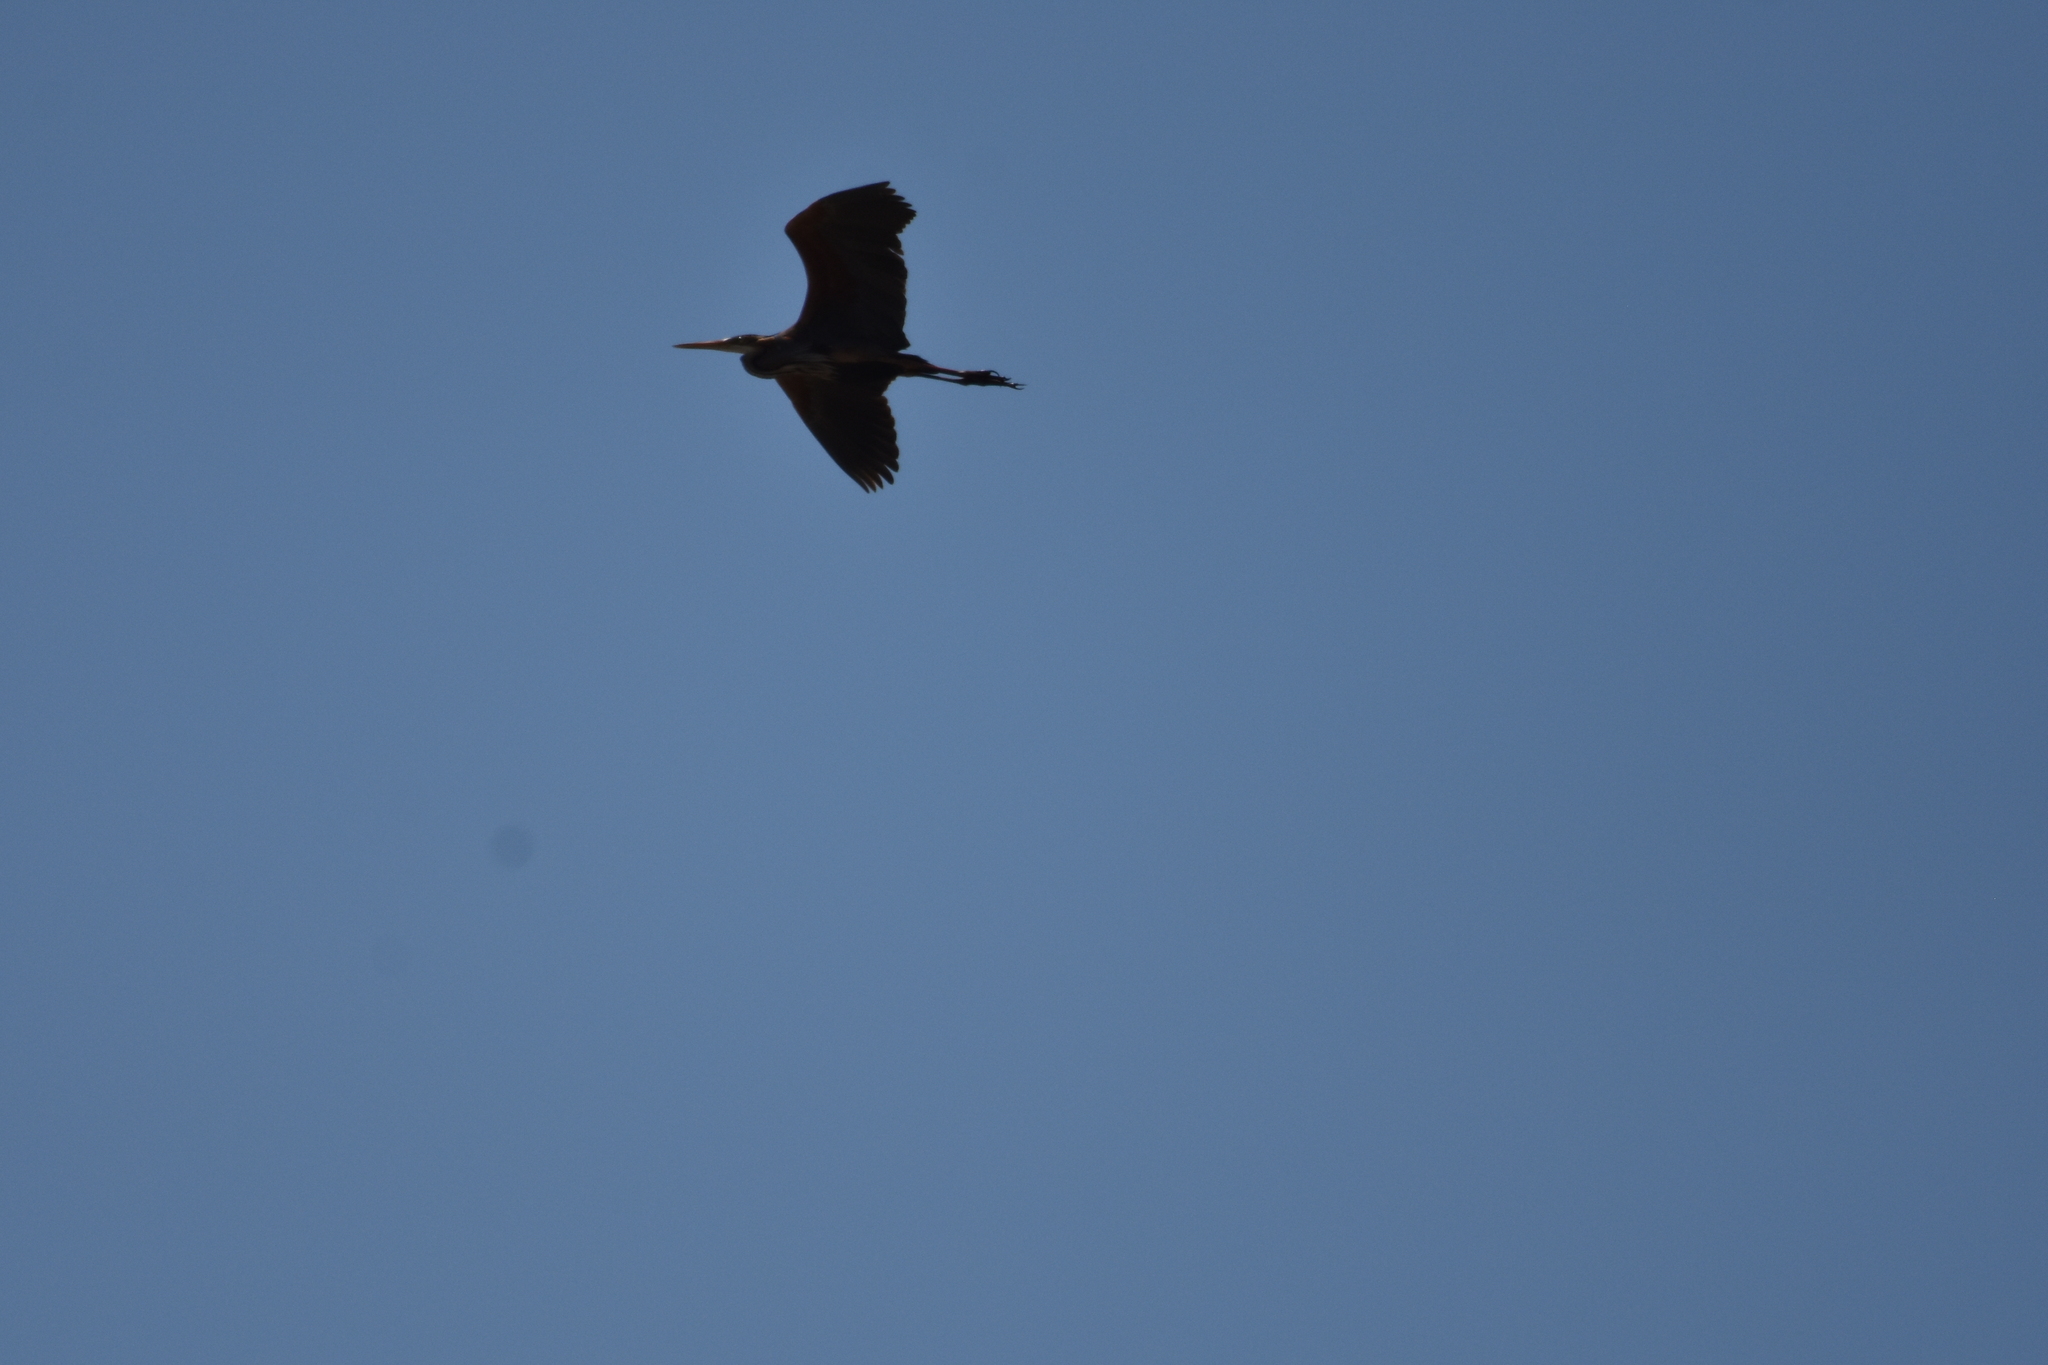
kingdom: Animalia
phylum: Chordata
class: Aves
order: Pelecaniformes
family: Ardeidae
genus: Ardea
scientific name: Ardea purpurea
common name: Purple heron
